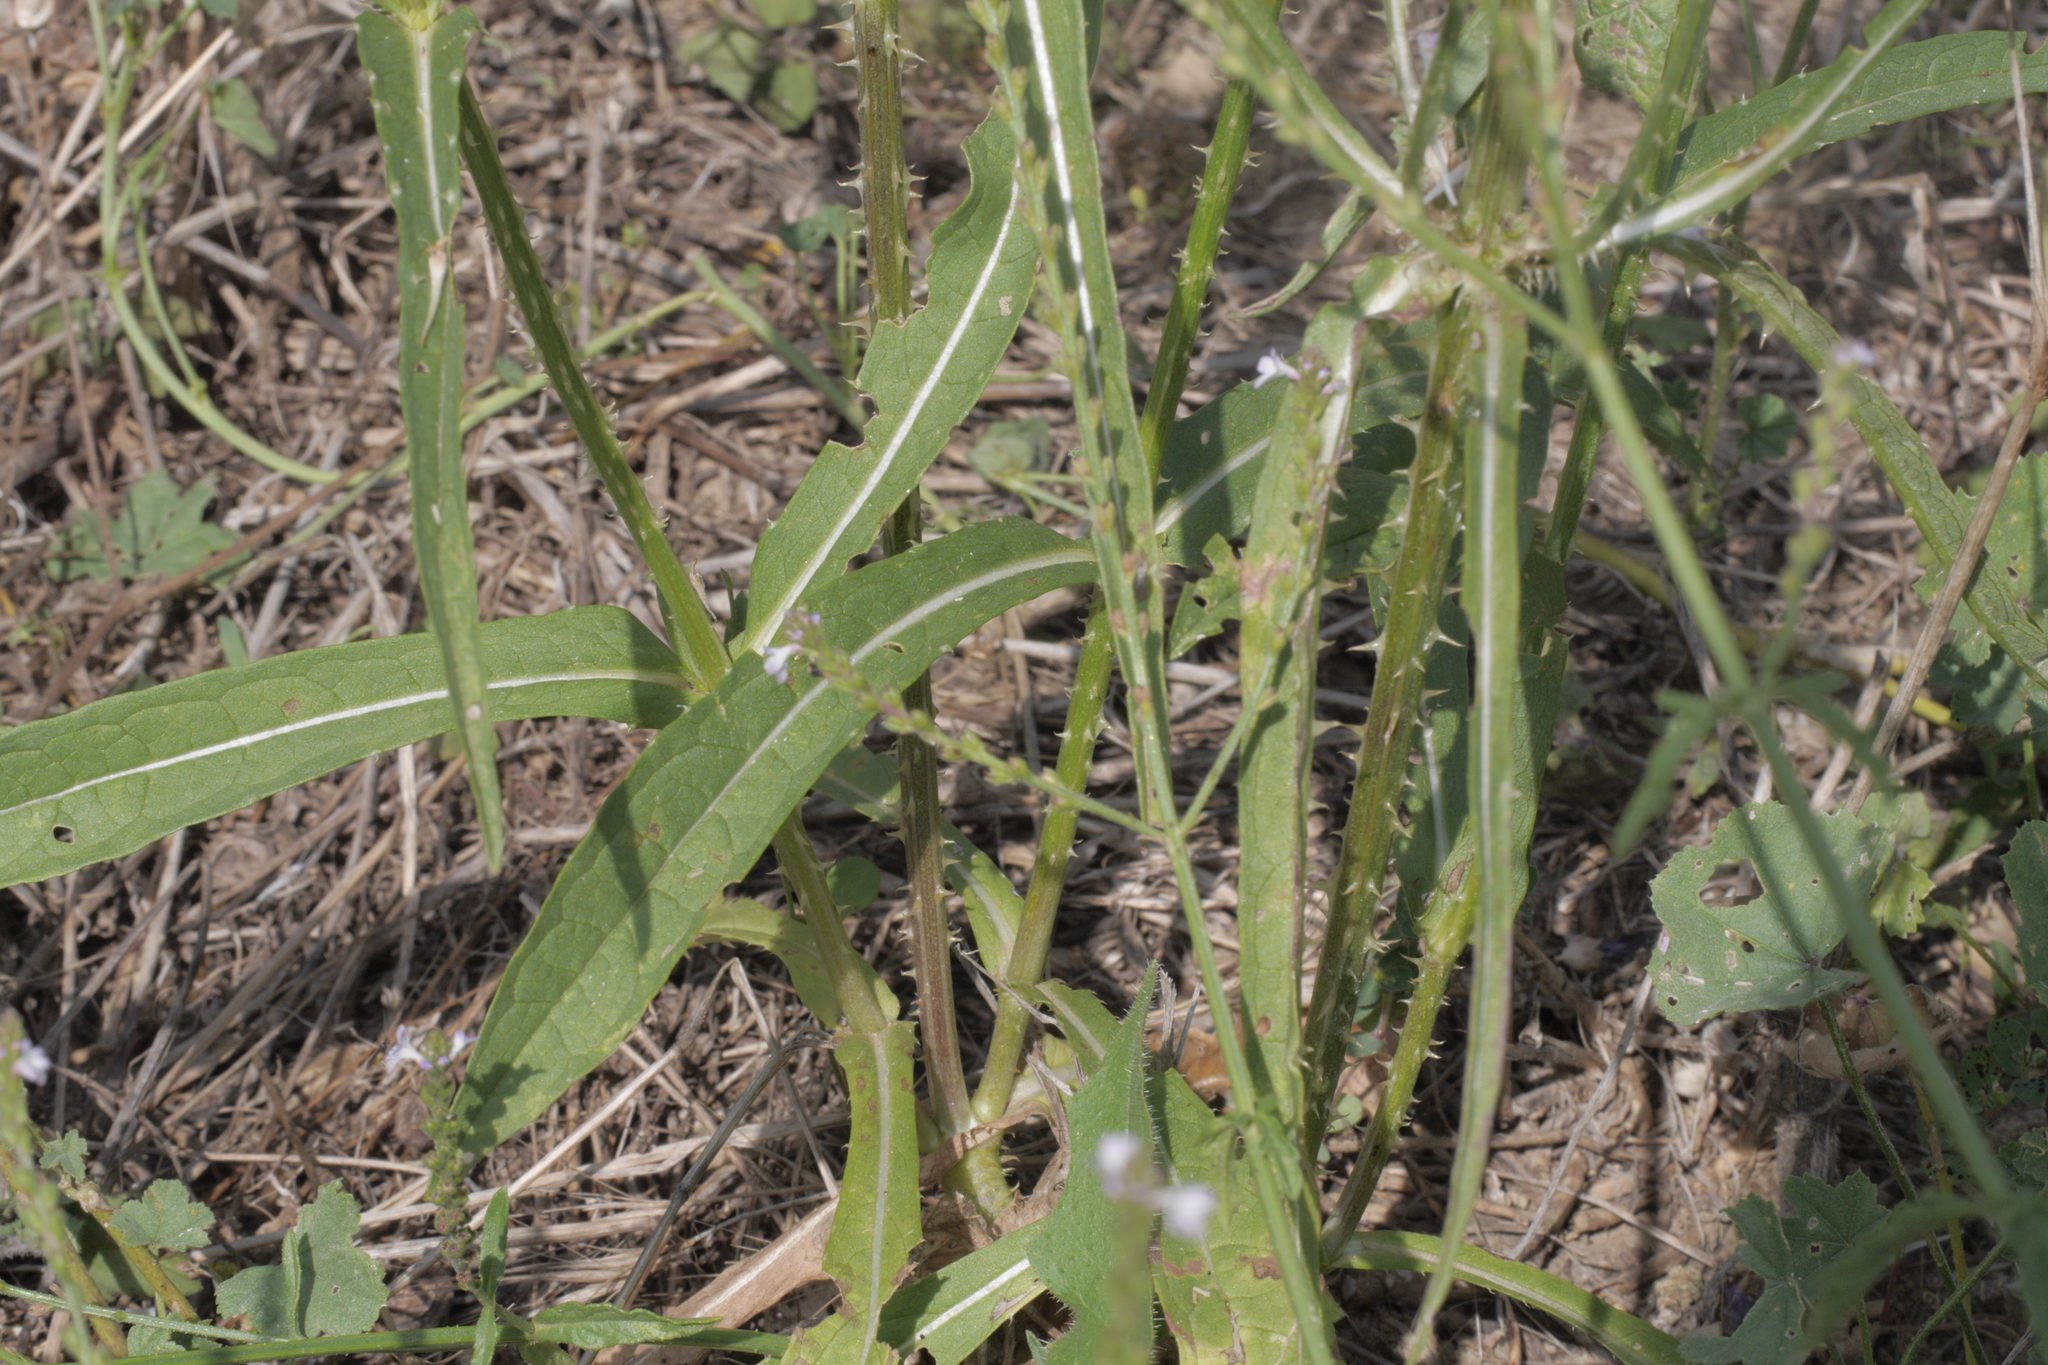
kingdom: Plantae
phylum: Tracheophyta
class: Magnoliopsida
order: Dipsacales
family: Caprifoliaceae
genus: Dipsacus
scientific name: Dipsacus fullonum
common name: Teasel
